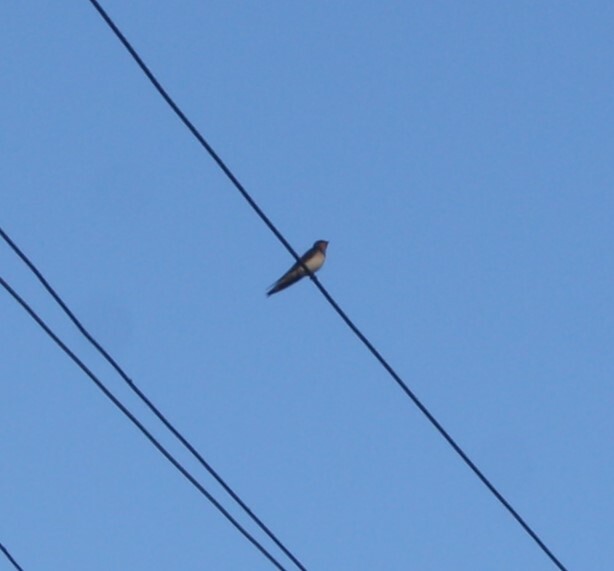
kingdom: Animalia
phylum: Chordata
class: Aves
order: Passeriformes
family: Hirundinidae
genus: Hirundo
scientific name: Hirundo rustica
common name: Barn swallow
